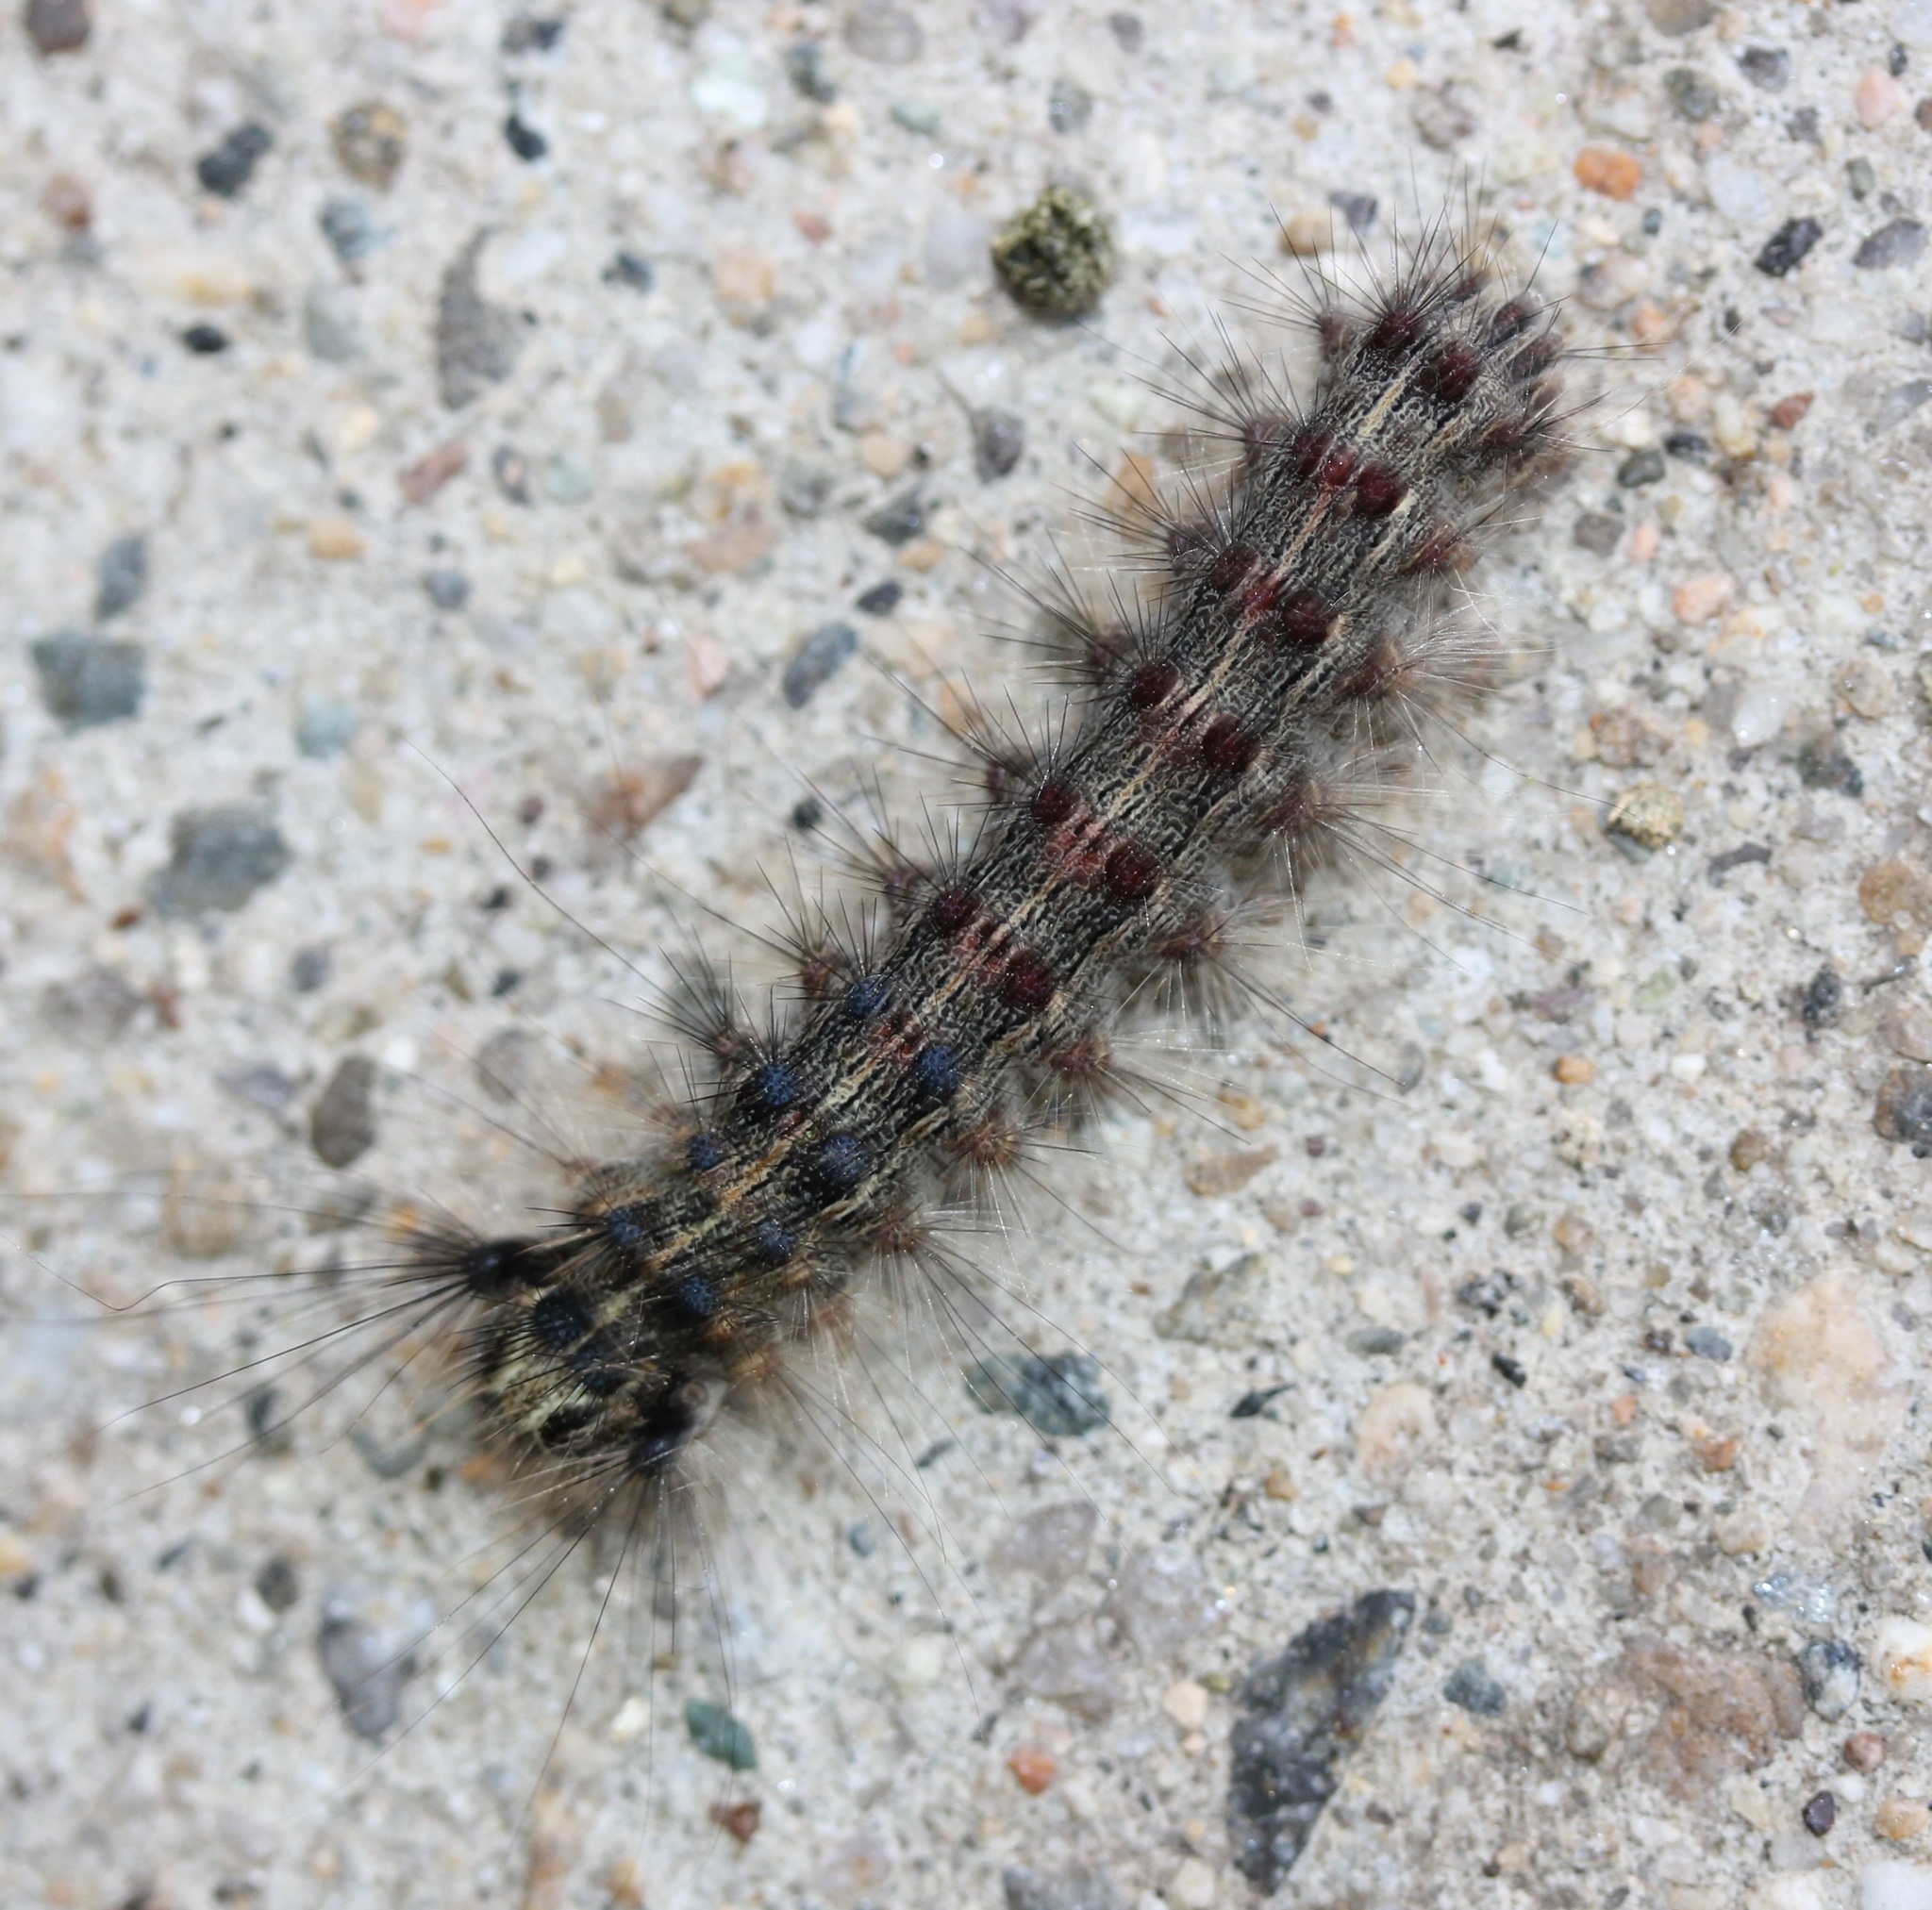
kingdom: Animalia
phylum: Arthropoda
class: Insecta
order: Lepidoptera
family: Erebidae
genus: Lymantria
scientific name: Lymantria dispar
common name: Gypsy moth
